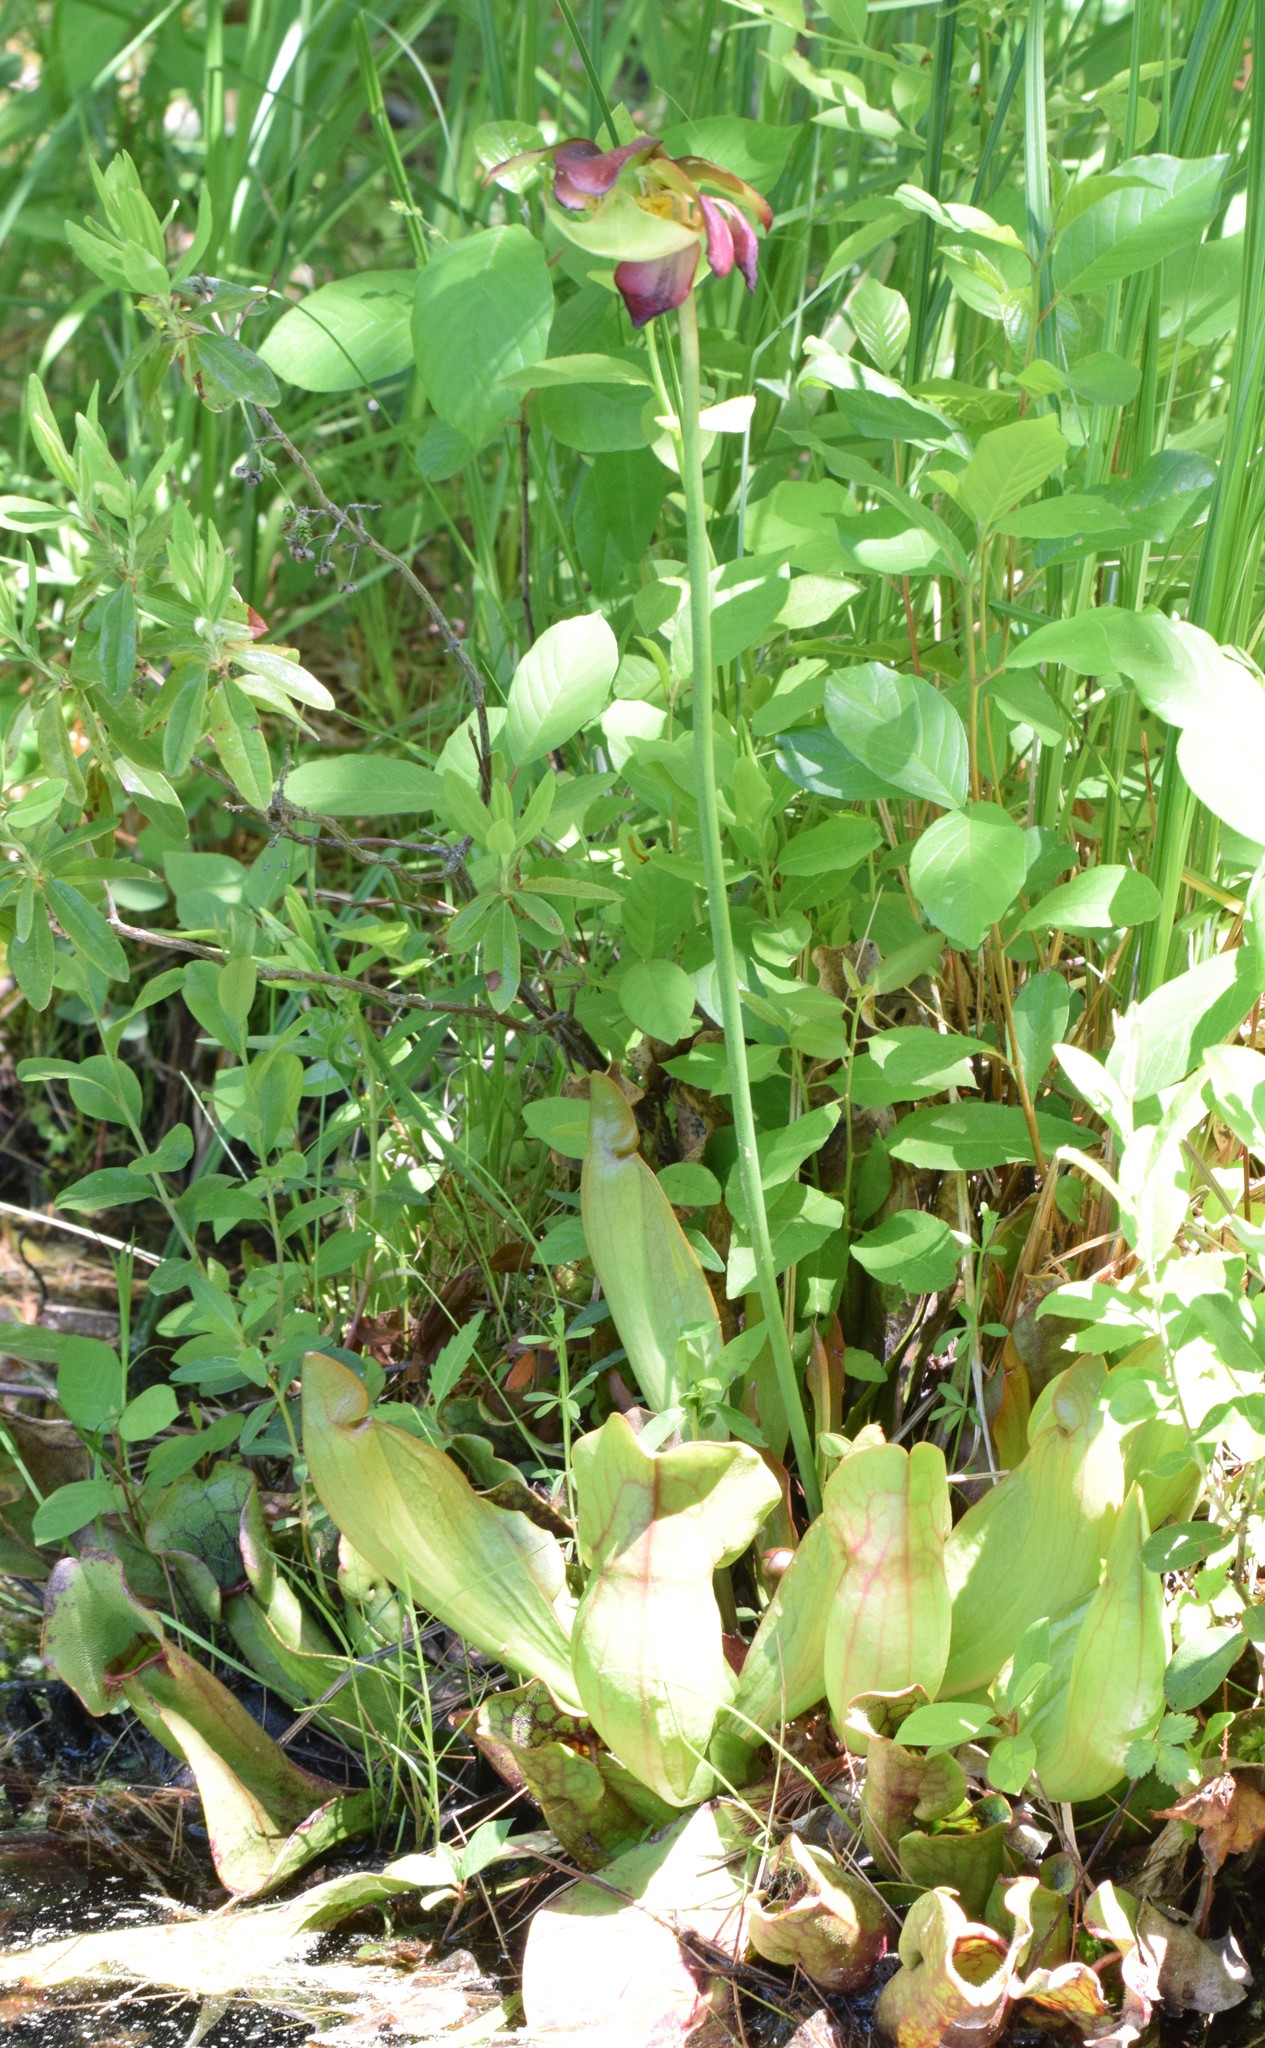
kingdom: Plantae
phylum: Tracheophyta
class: Magnoliopsida
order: Ericales
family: Sarraceniaceae
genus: Sarracenia
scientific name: Sarracenia purpurea
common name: Pitcherplant
